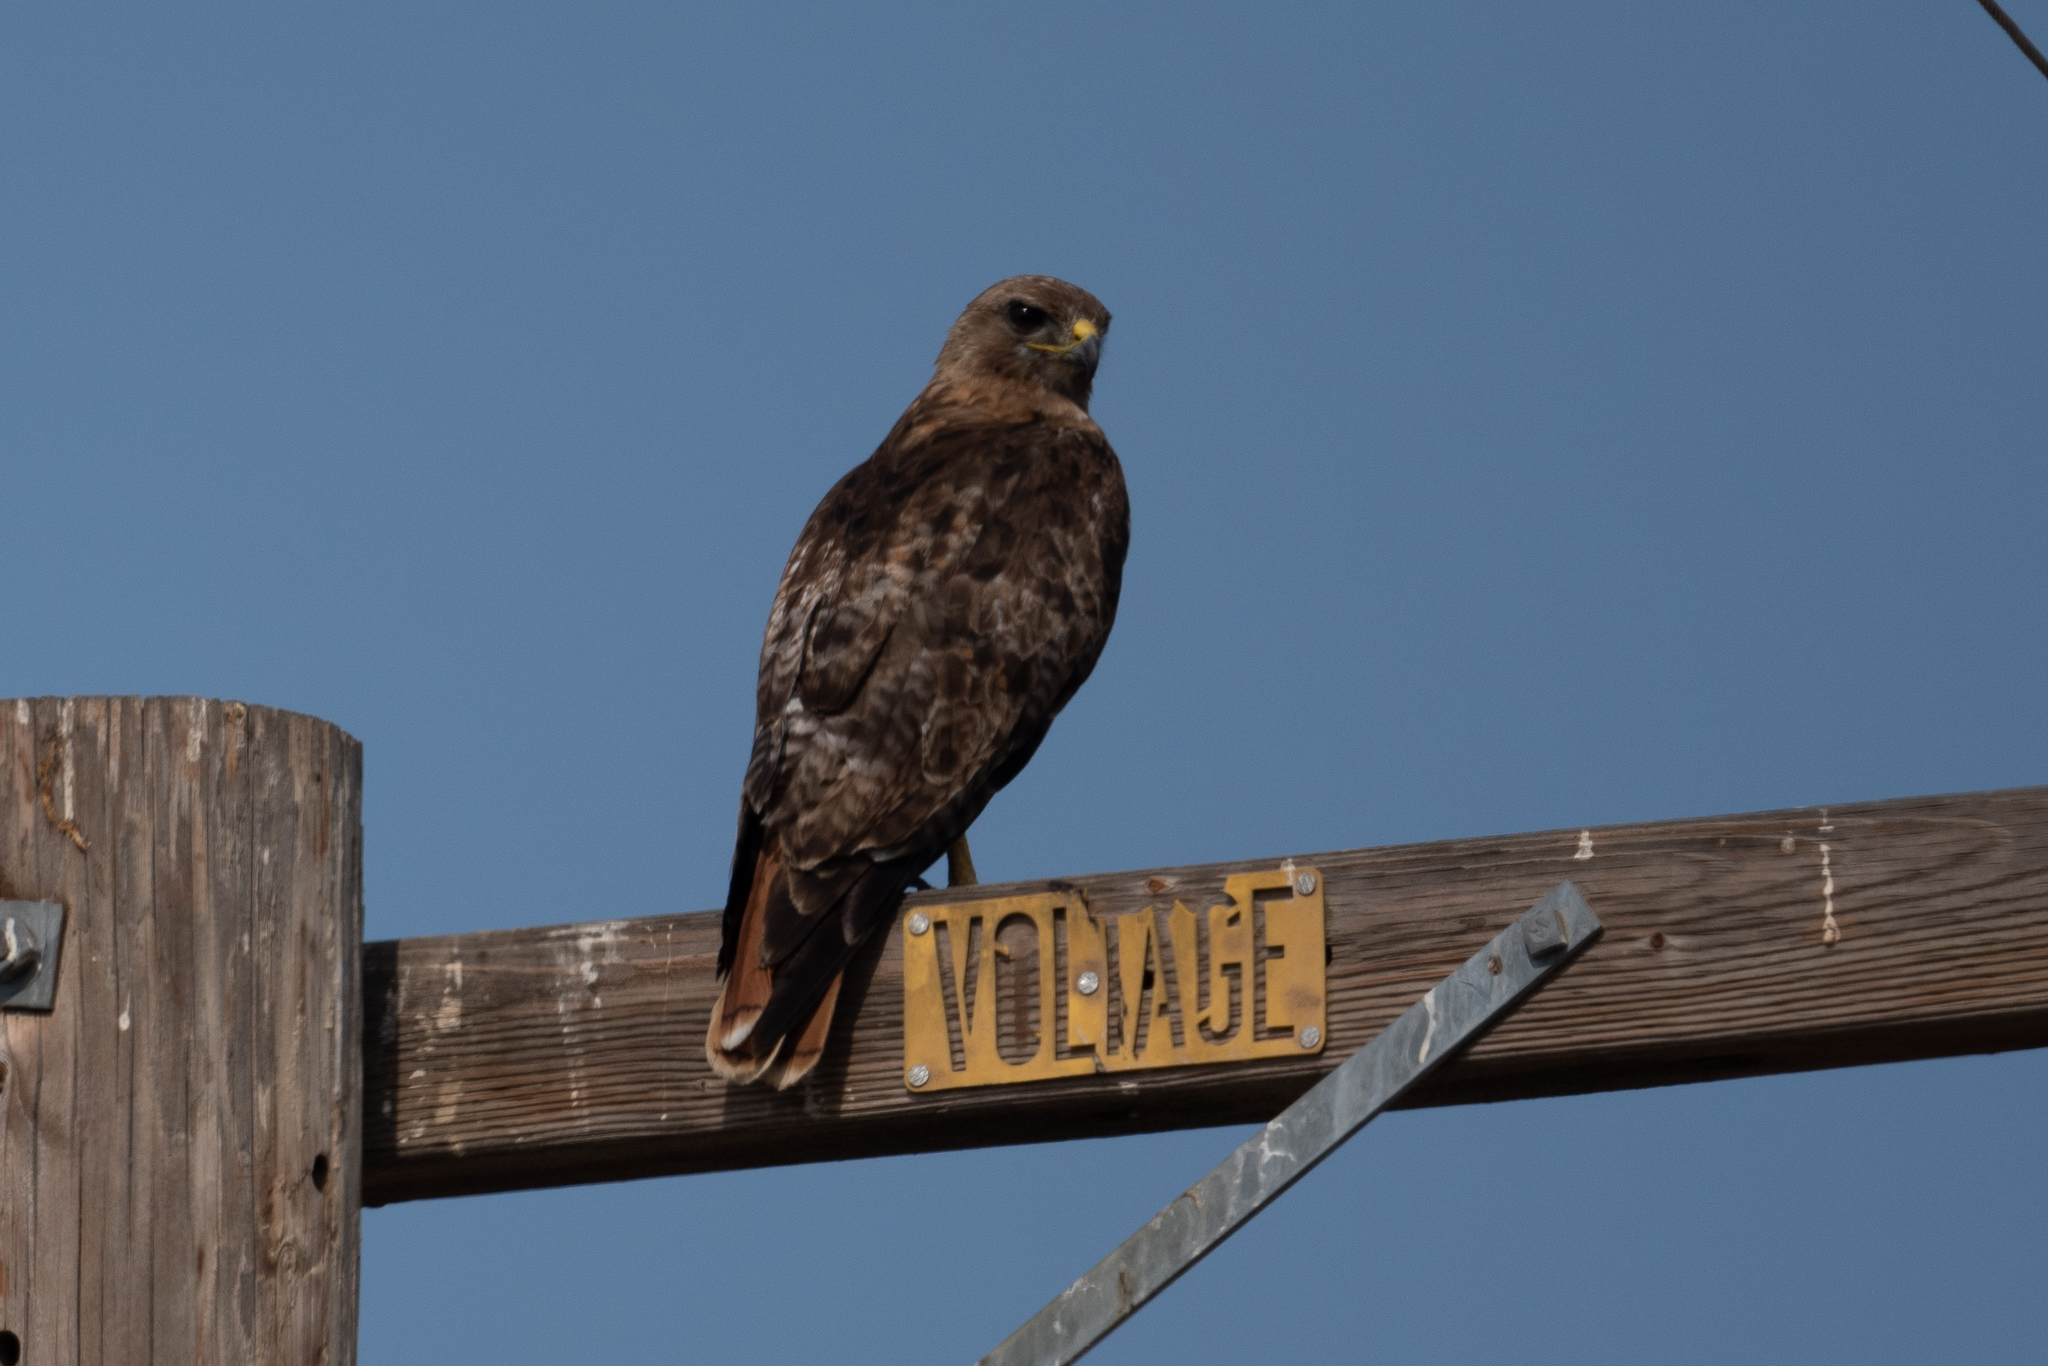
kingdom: Animalia
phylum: Chordata
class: Aves
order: Accipitriformes
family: Accipitridae
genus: Buteo
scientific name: Buteo jamaicensis
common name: Red-tailed hawk
